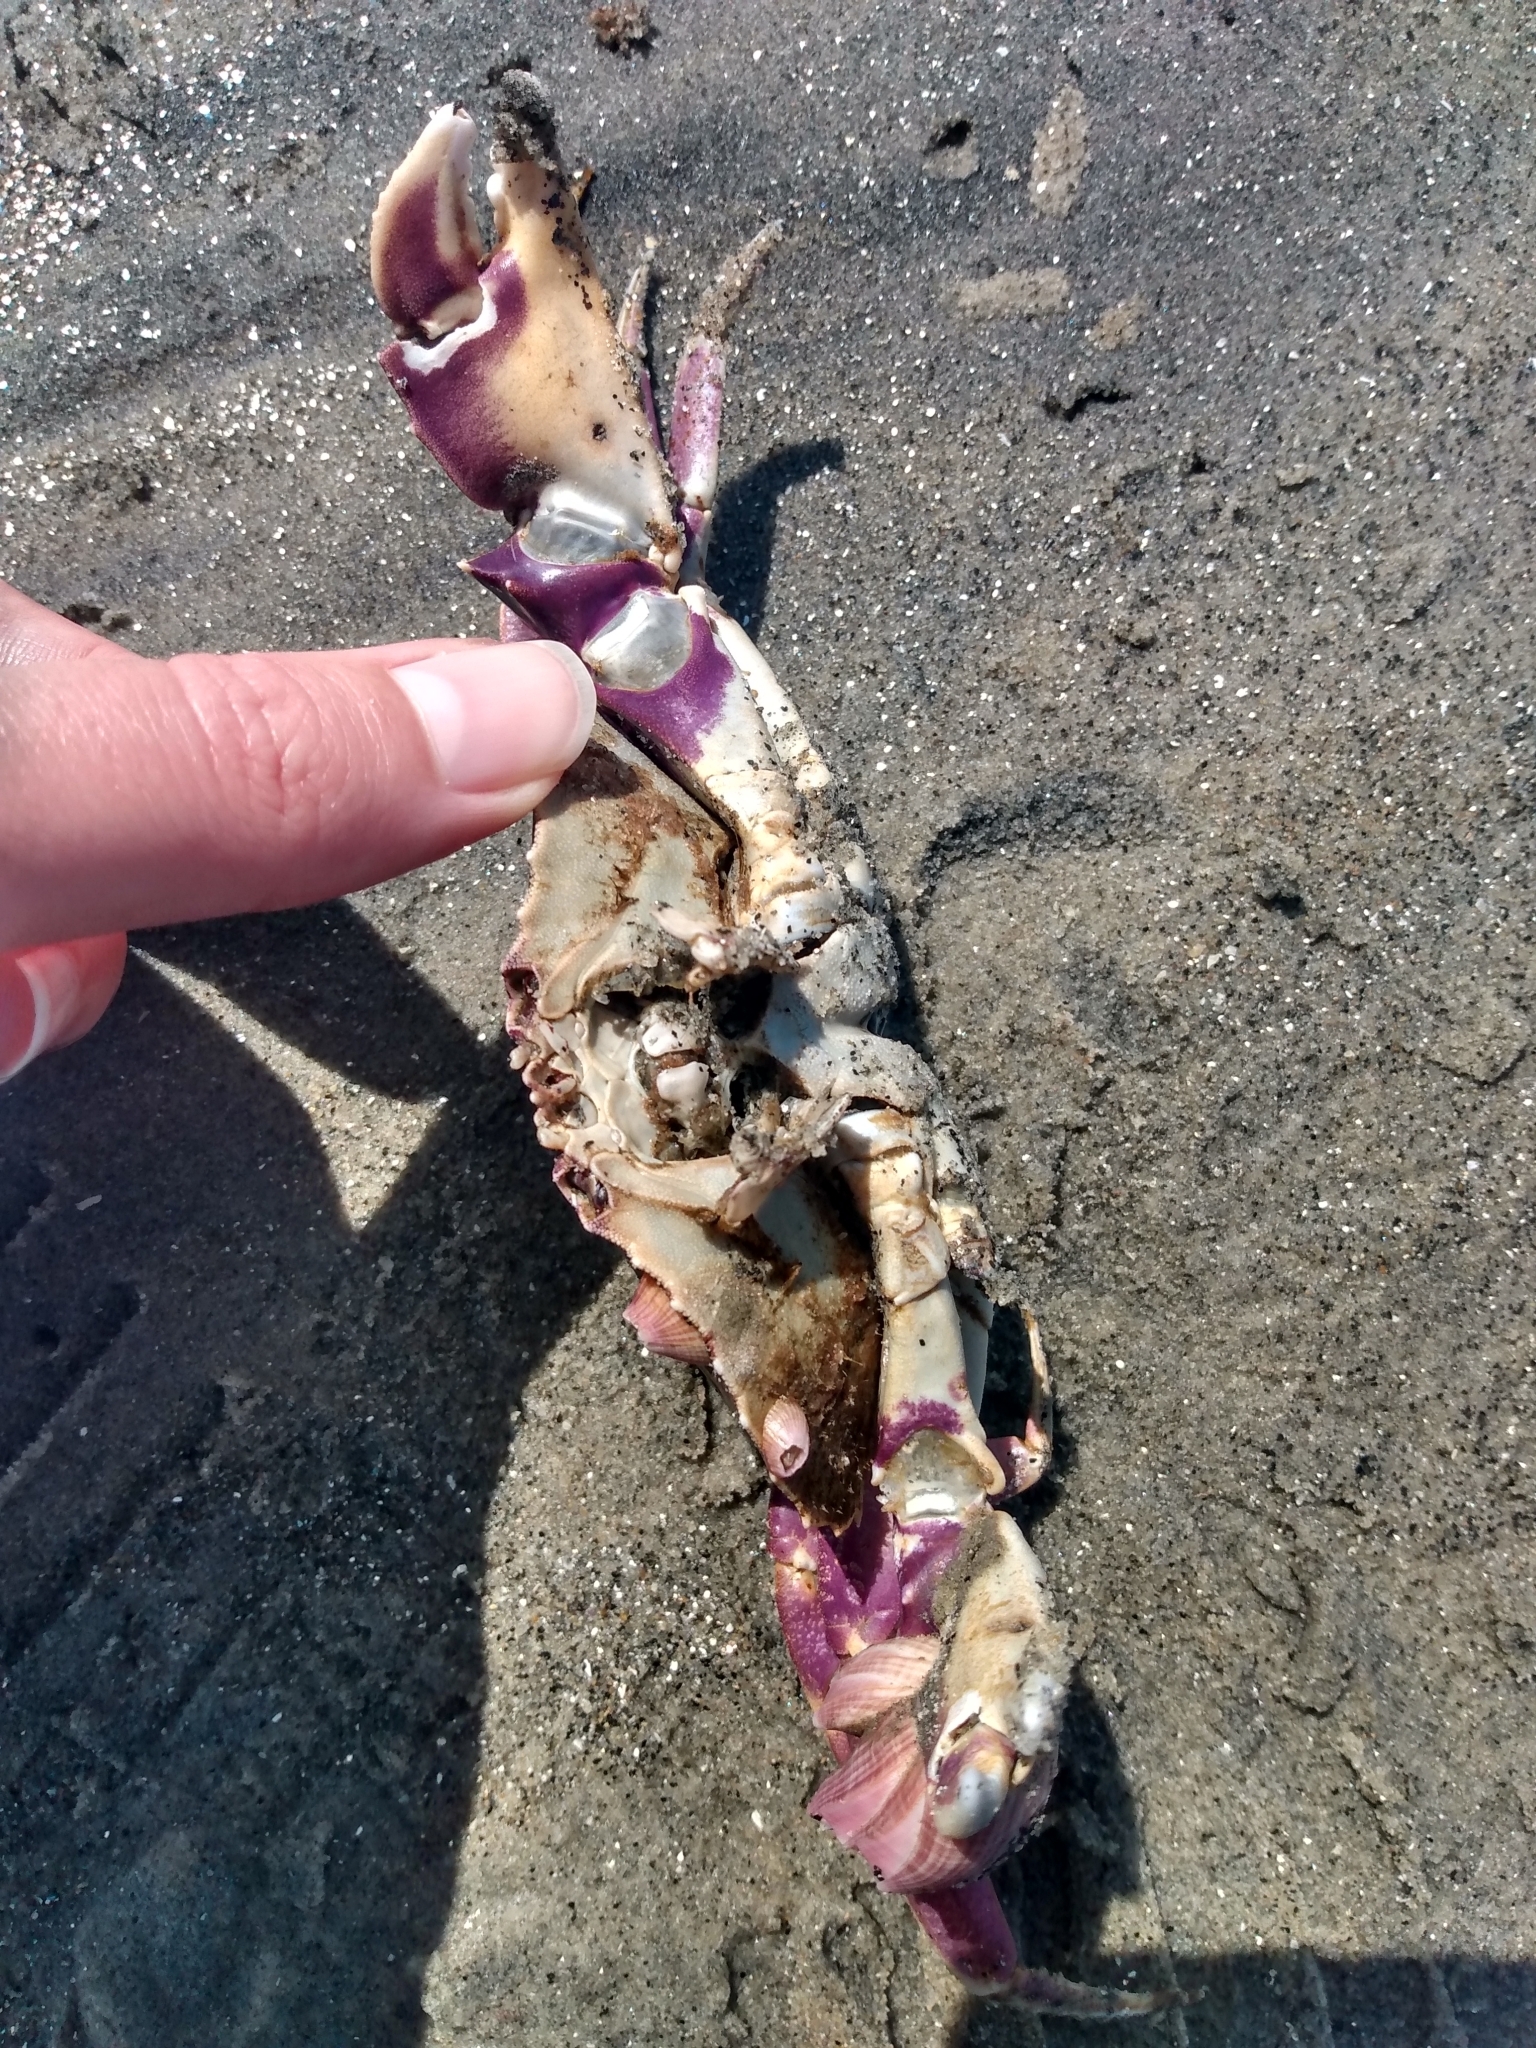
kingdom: Animalia
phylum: Arthropoda
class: Malacostraca
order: Decapoda
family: Cancridae
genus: Metacarcinus
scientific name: Metacarcinus gracilis
